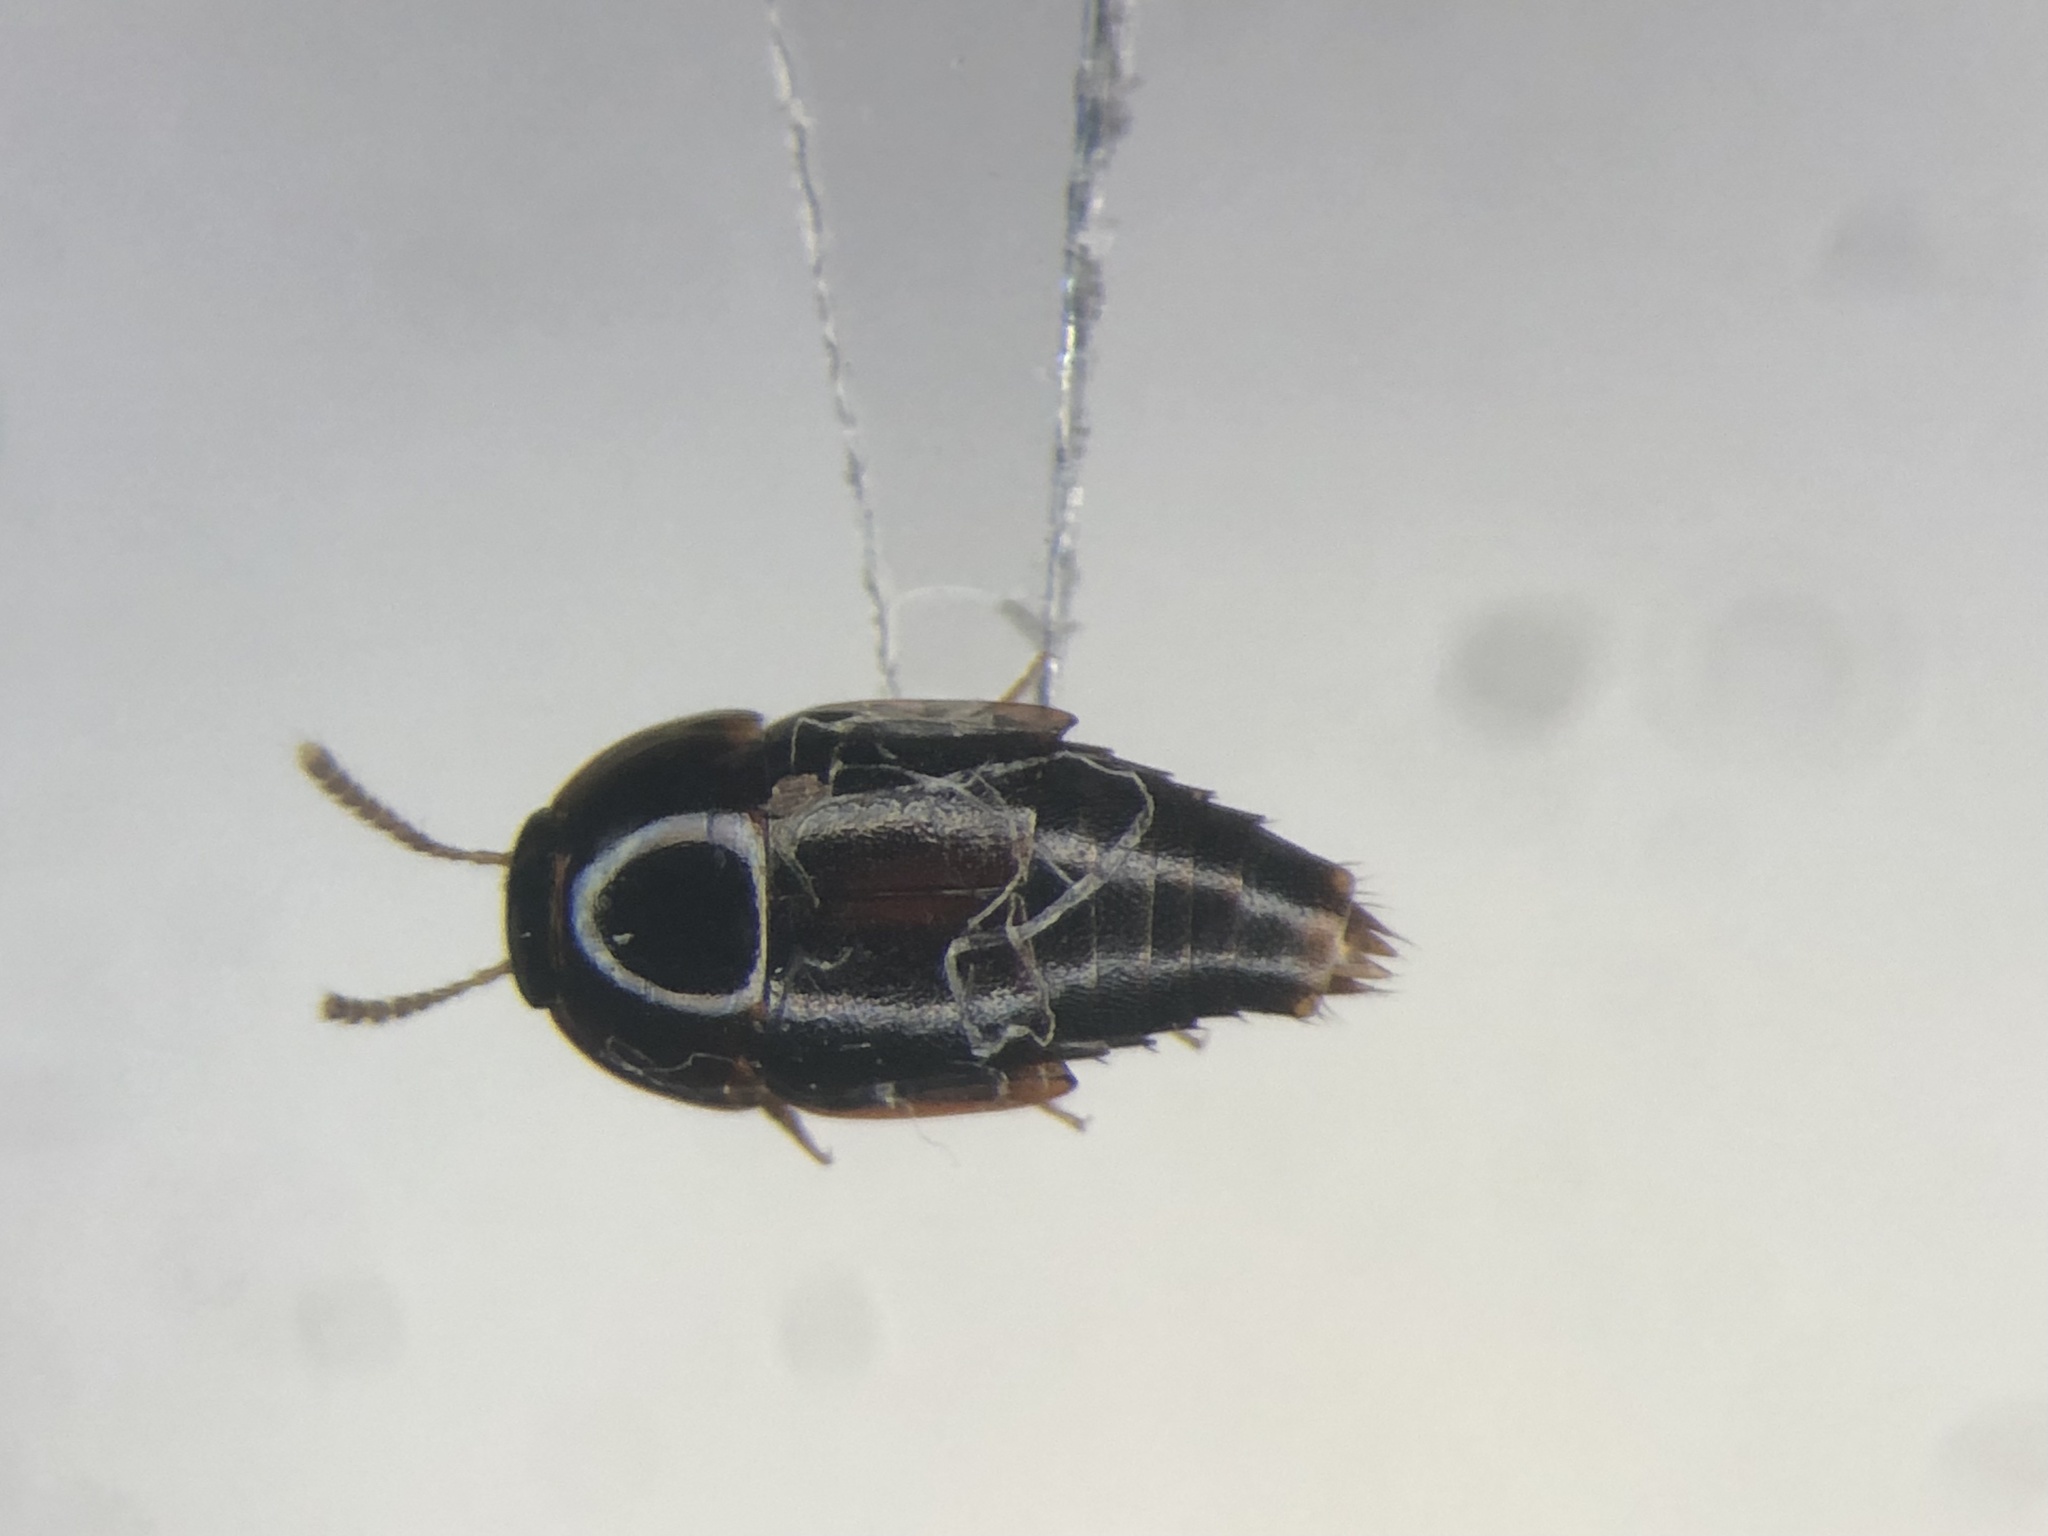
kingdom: Animalia
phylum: Arthropoda
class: Insecta
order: Coleoptera
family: Staphylinidae
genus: Coproporus
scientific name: Coproporus ventriculus
